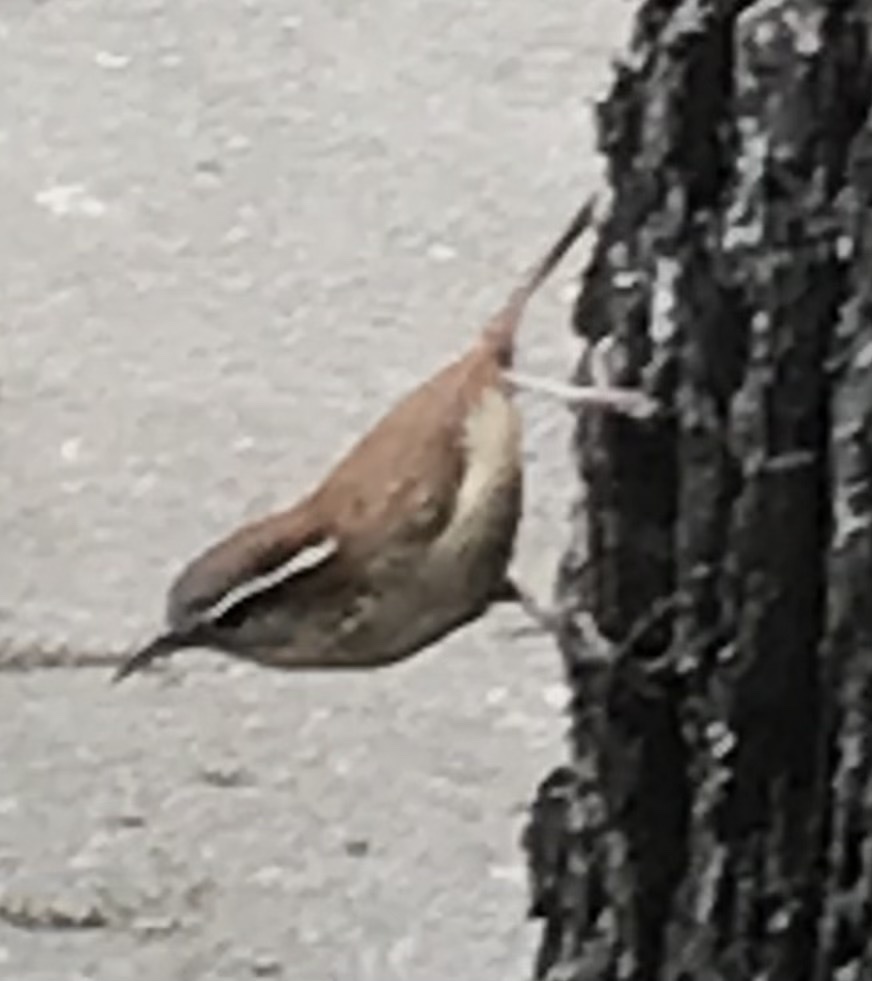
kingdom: Animalia
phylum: Chordata
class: Aves
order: Passeriformes
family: Troglodytidae
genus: Thryothorus
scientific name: Thryothorus ludovicianus
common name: Carolina wren
